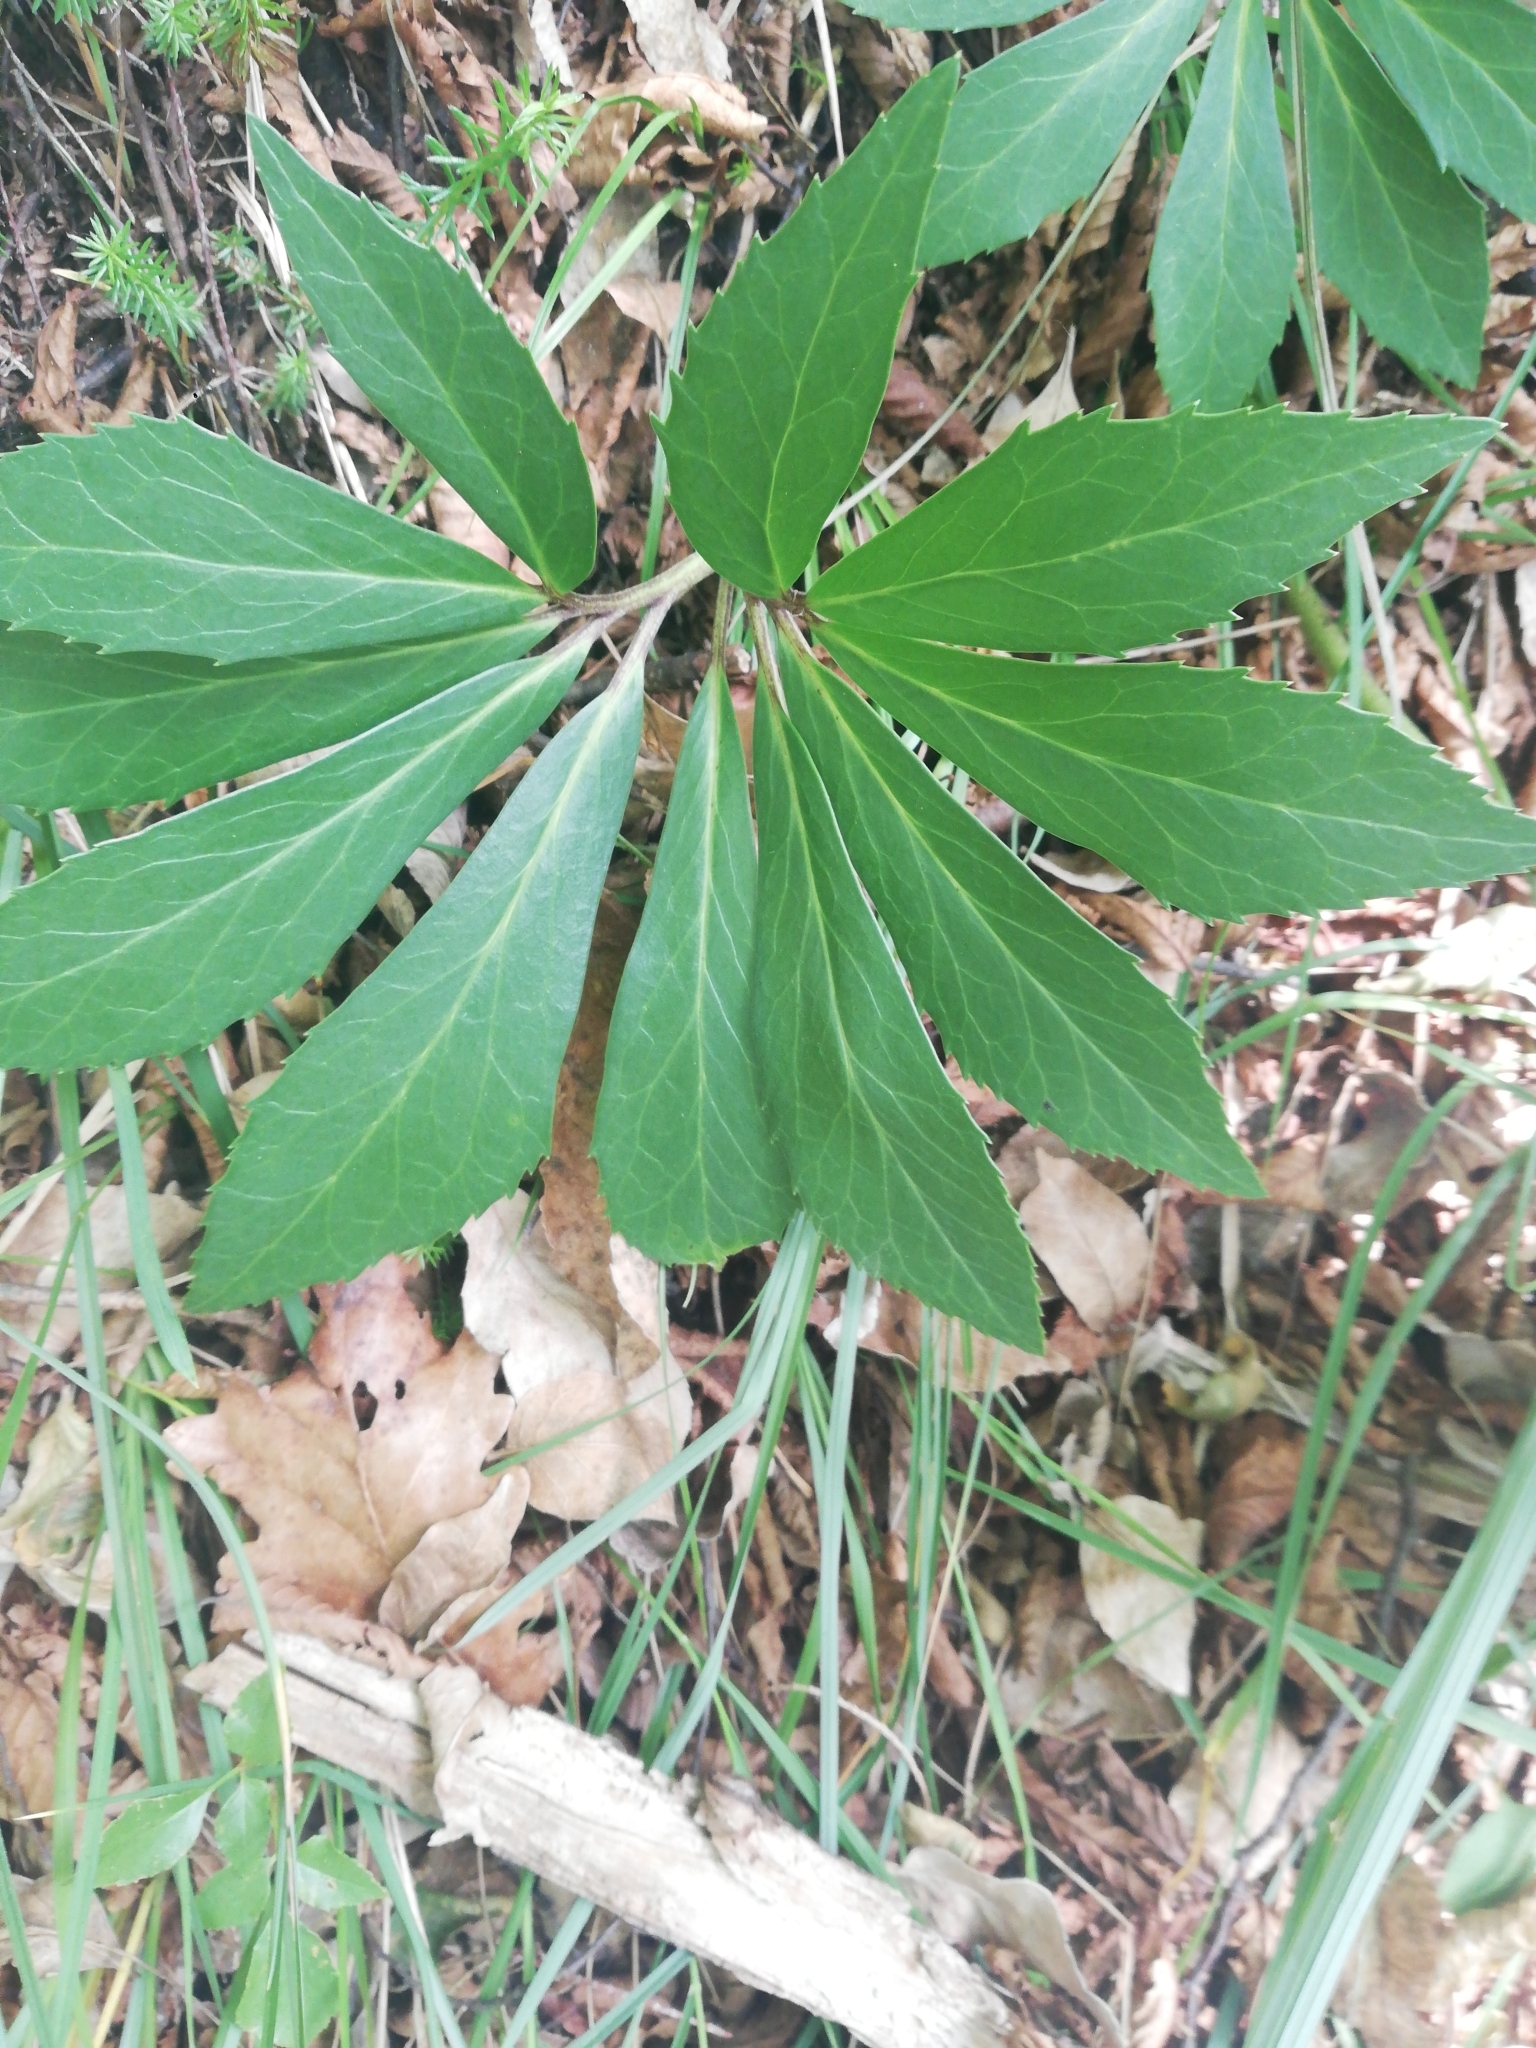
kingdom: Plantae
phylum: Tracheophyta
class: Magnoliopsida
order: Ranunculales
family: Ranunculaceae
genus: Helleborus
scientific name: Helleborus niger
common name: Black hellebore
